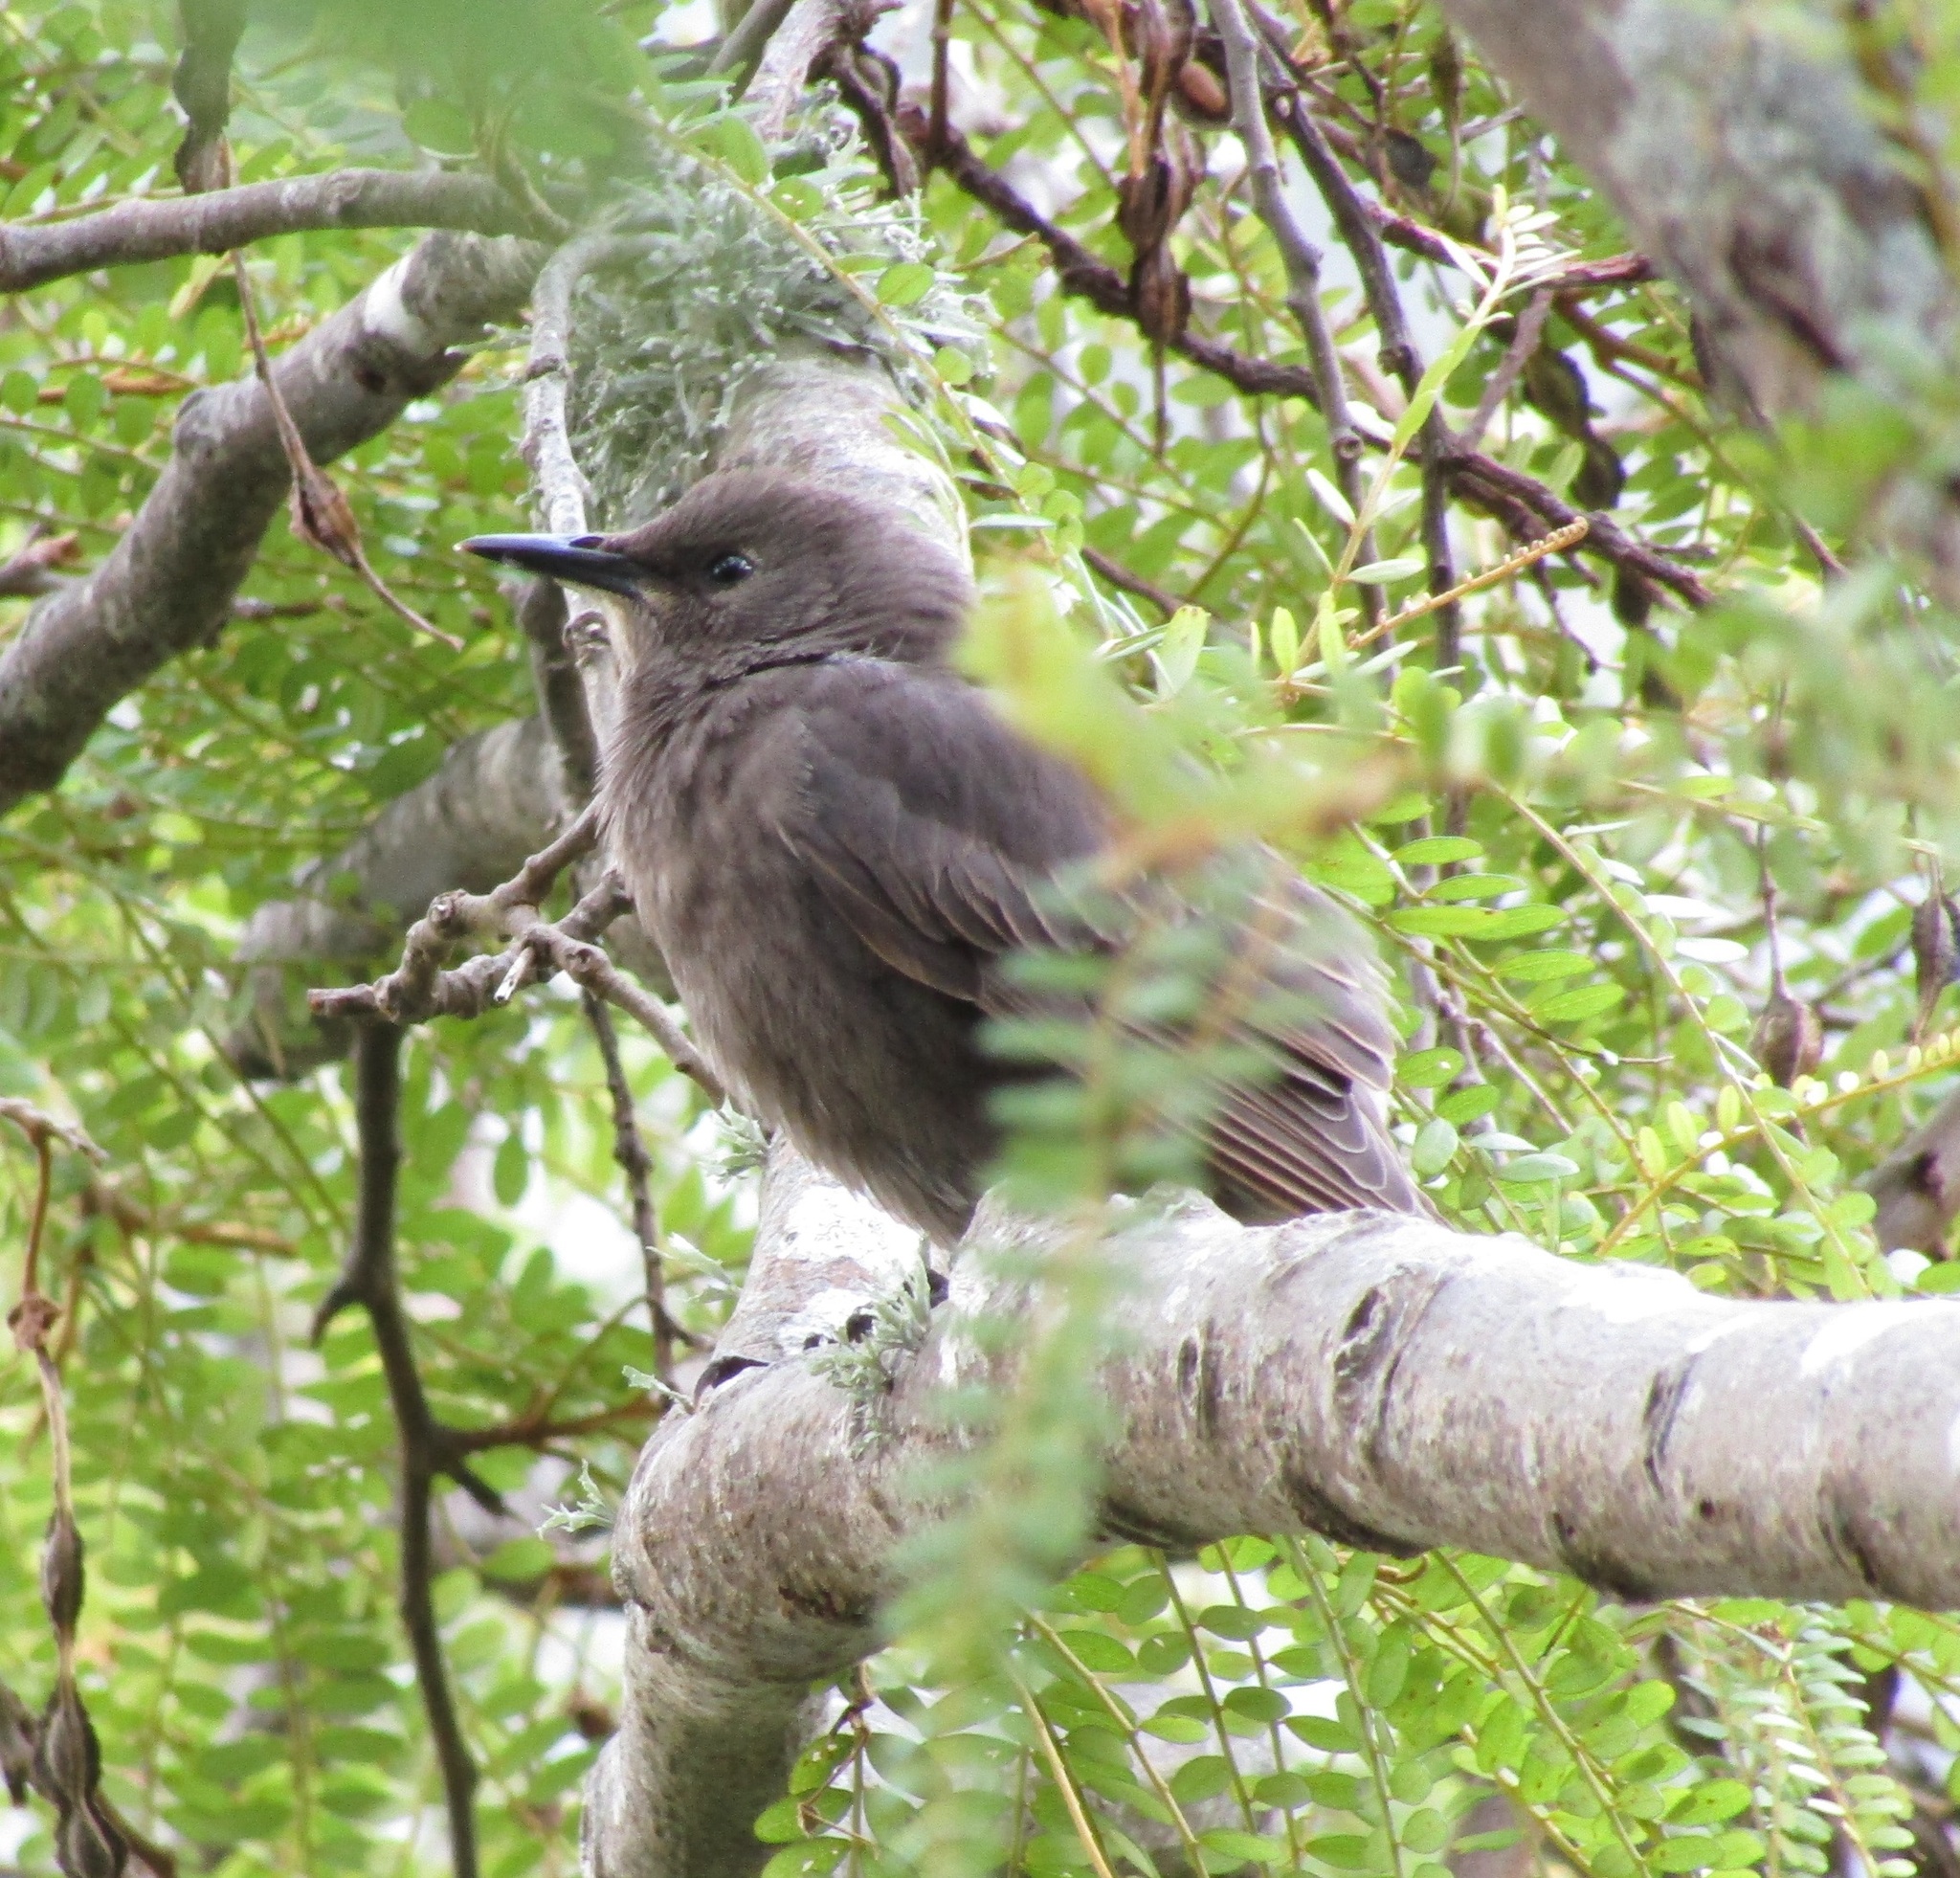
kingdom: Animalia
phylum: Chordata
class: Aves
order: Passeriformes
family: Sturnidae
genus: Sturnus
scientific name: Sturnus vulgaris
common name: Common starling
